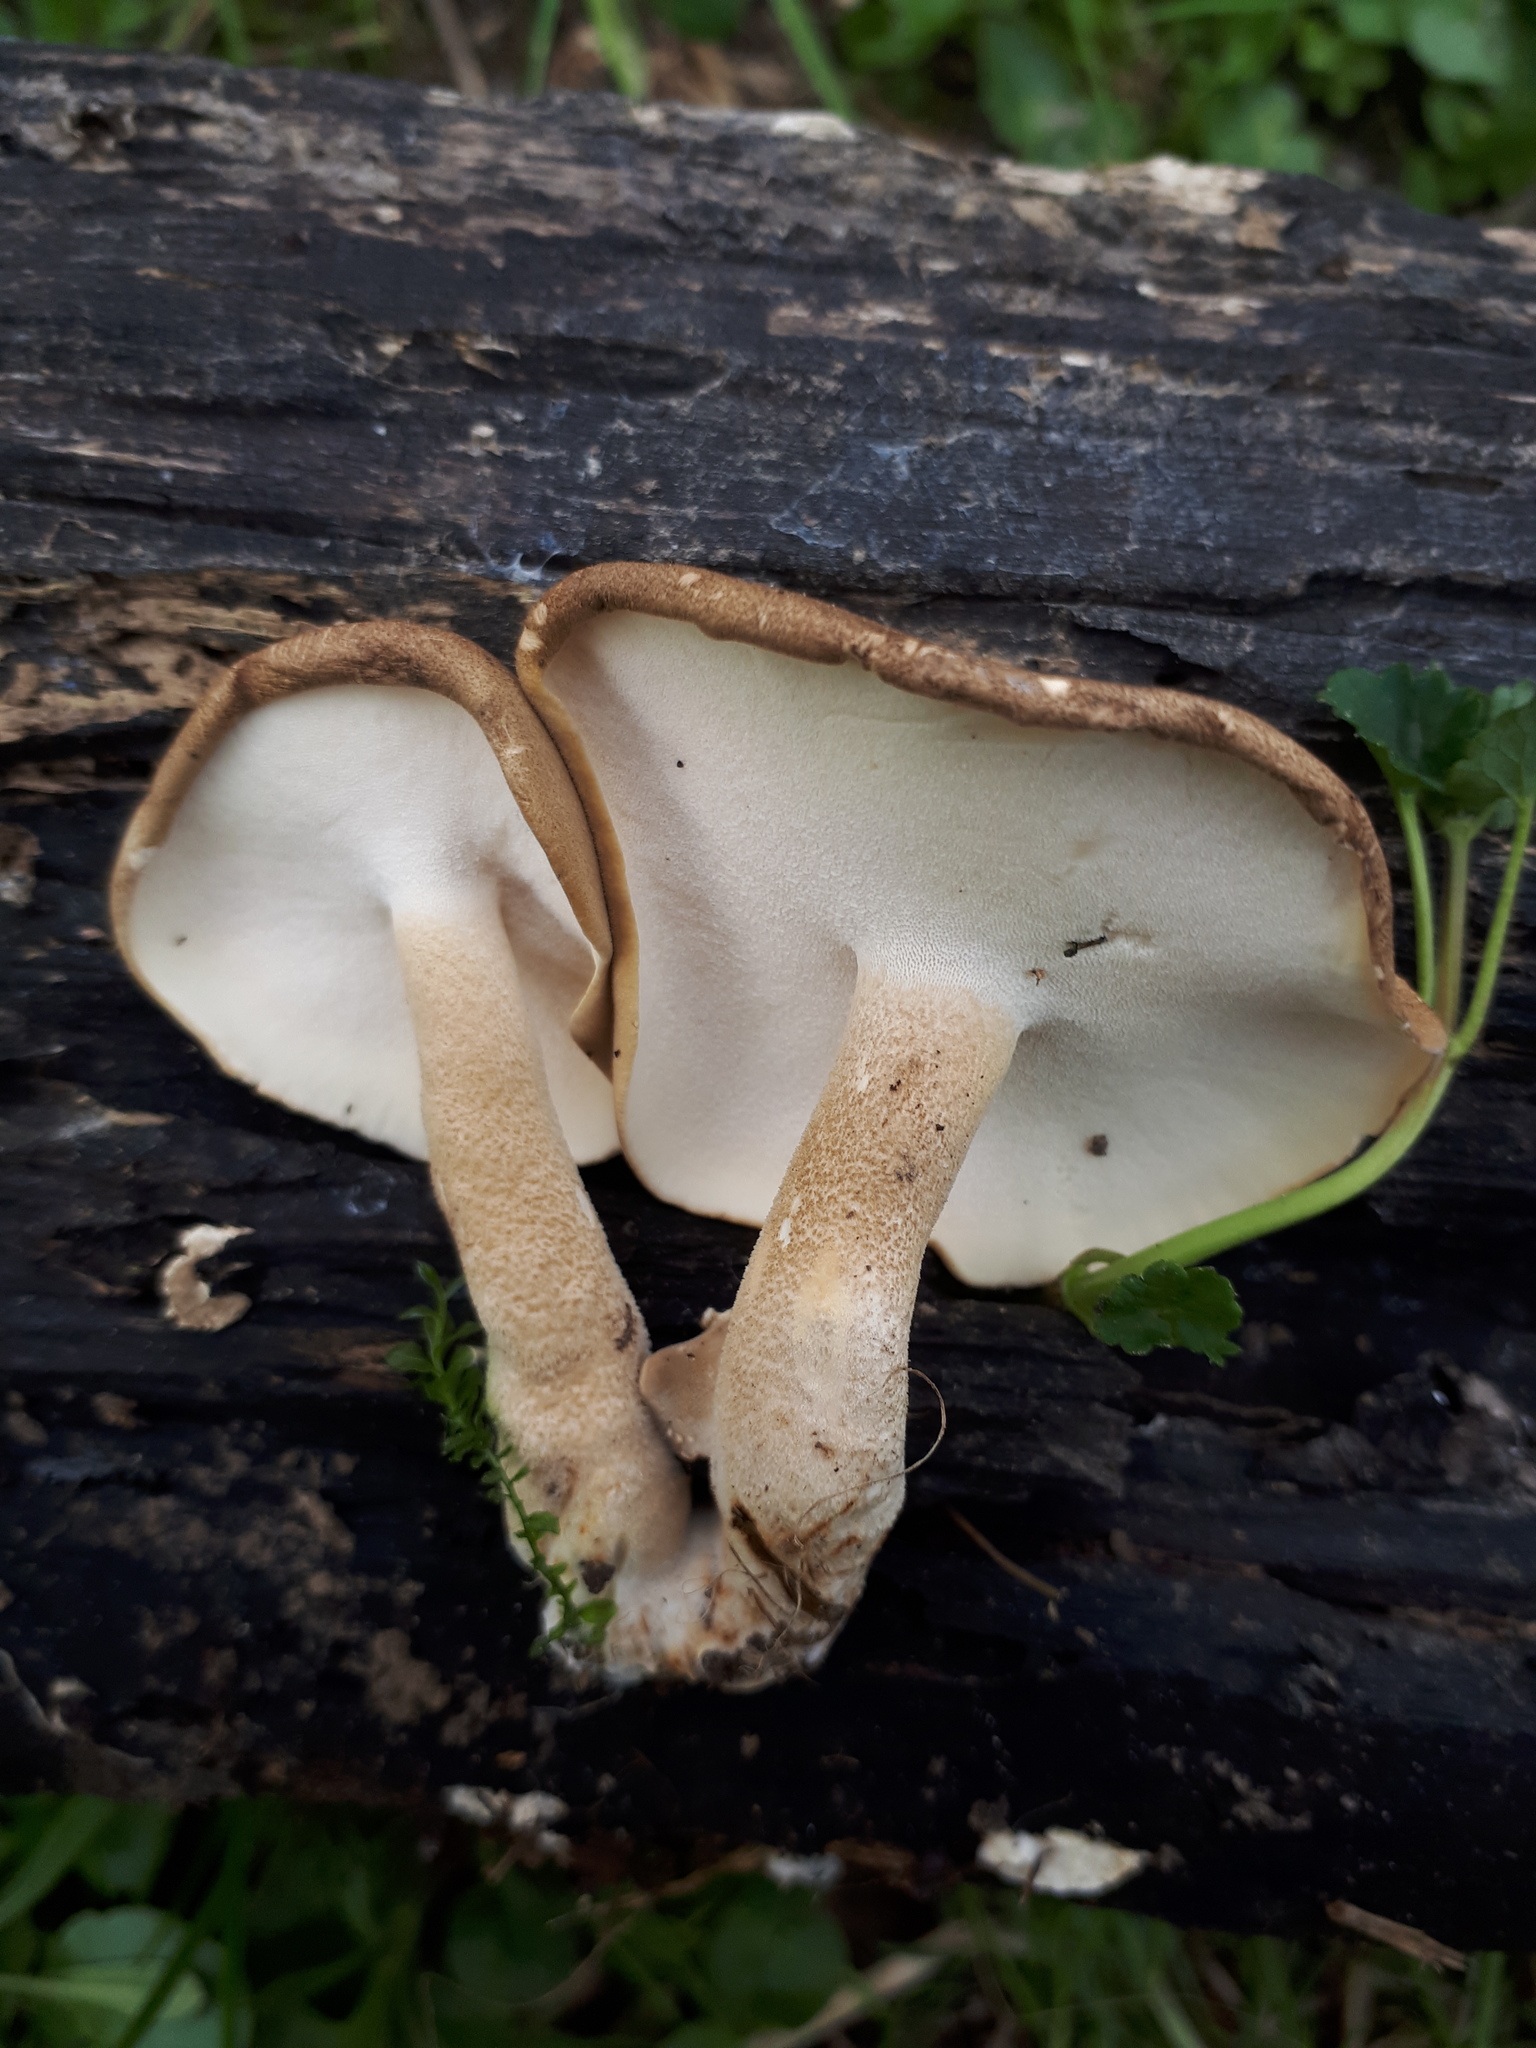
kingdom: Fungi
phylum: Basidiomycota
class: Agaricomycetes
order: Polyporales
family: Polyporaceae
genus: Lentinus
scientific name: Lentinus substrictus
